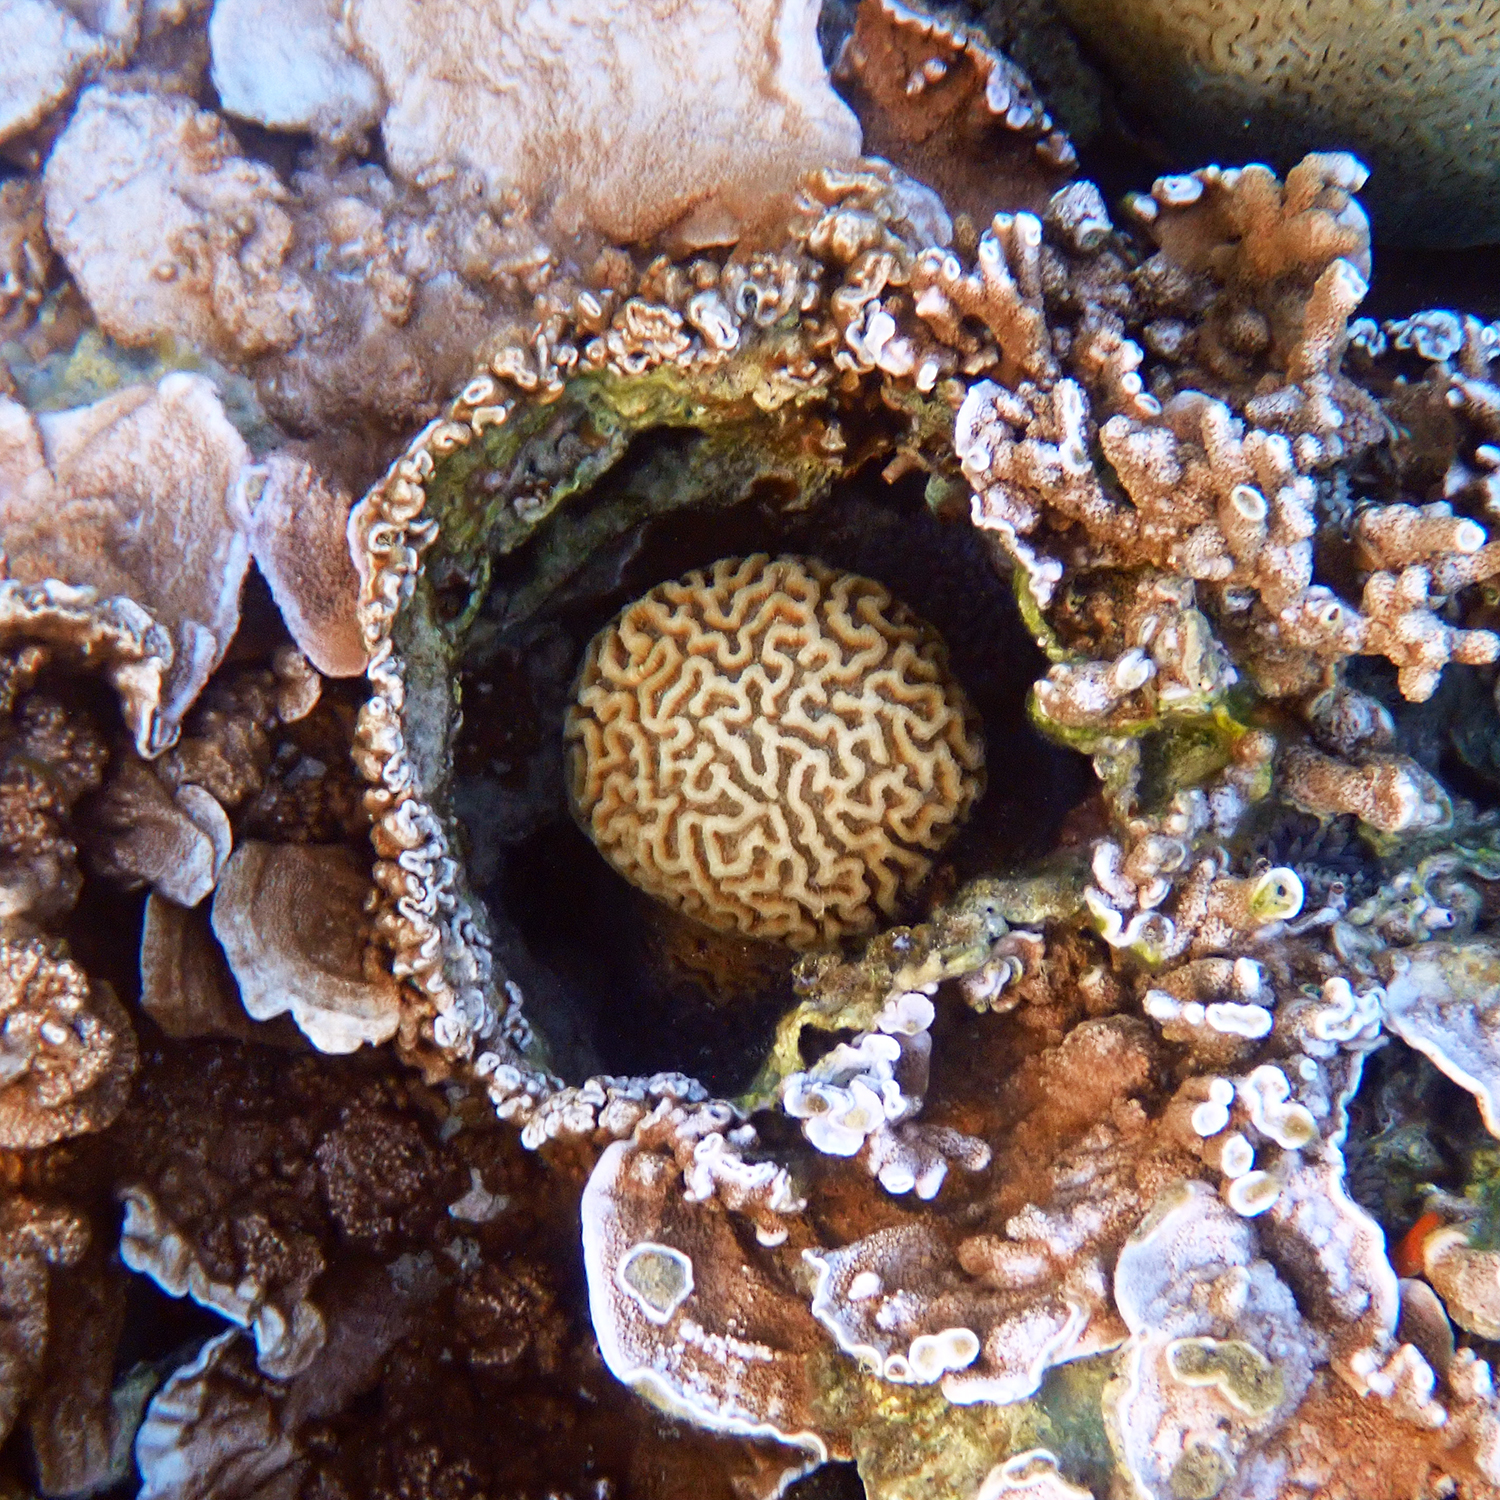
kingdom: Animalia
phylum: Cnidaria
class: Anthozoa
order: Scleractinia
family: Merulinidae
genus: Paragoniastrea
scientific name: Paragoniastrea australensis
